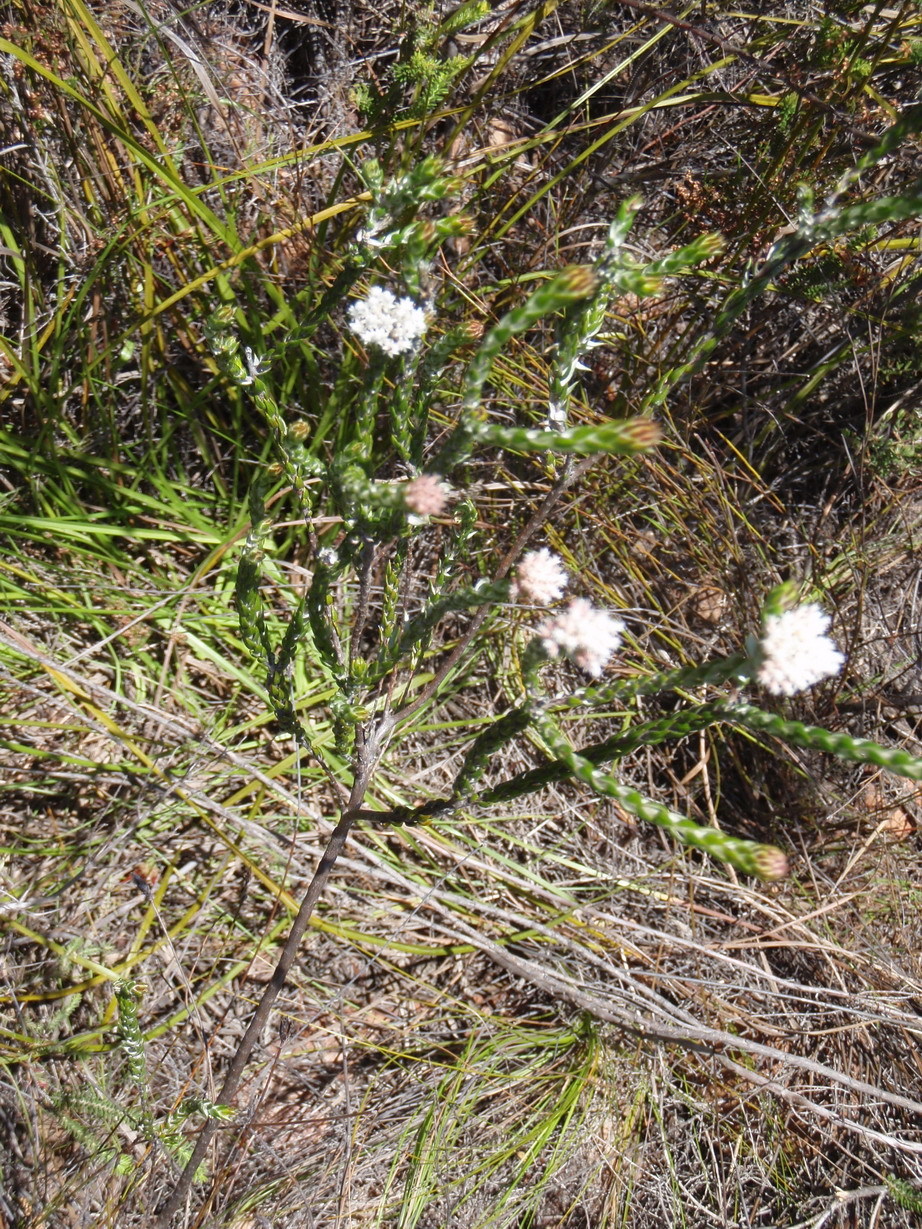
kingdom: Plantae
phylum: Tracheophyta
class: Magnoliopsida
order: Asterales
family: Asteraceae
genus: Metalasia
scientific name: Metalasia pulcherrima
